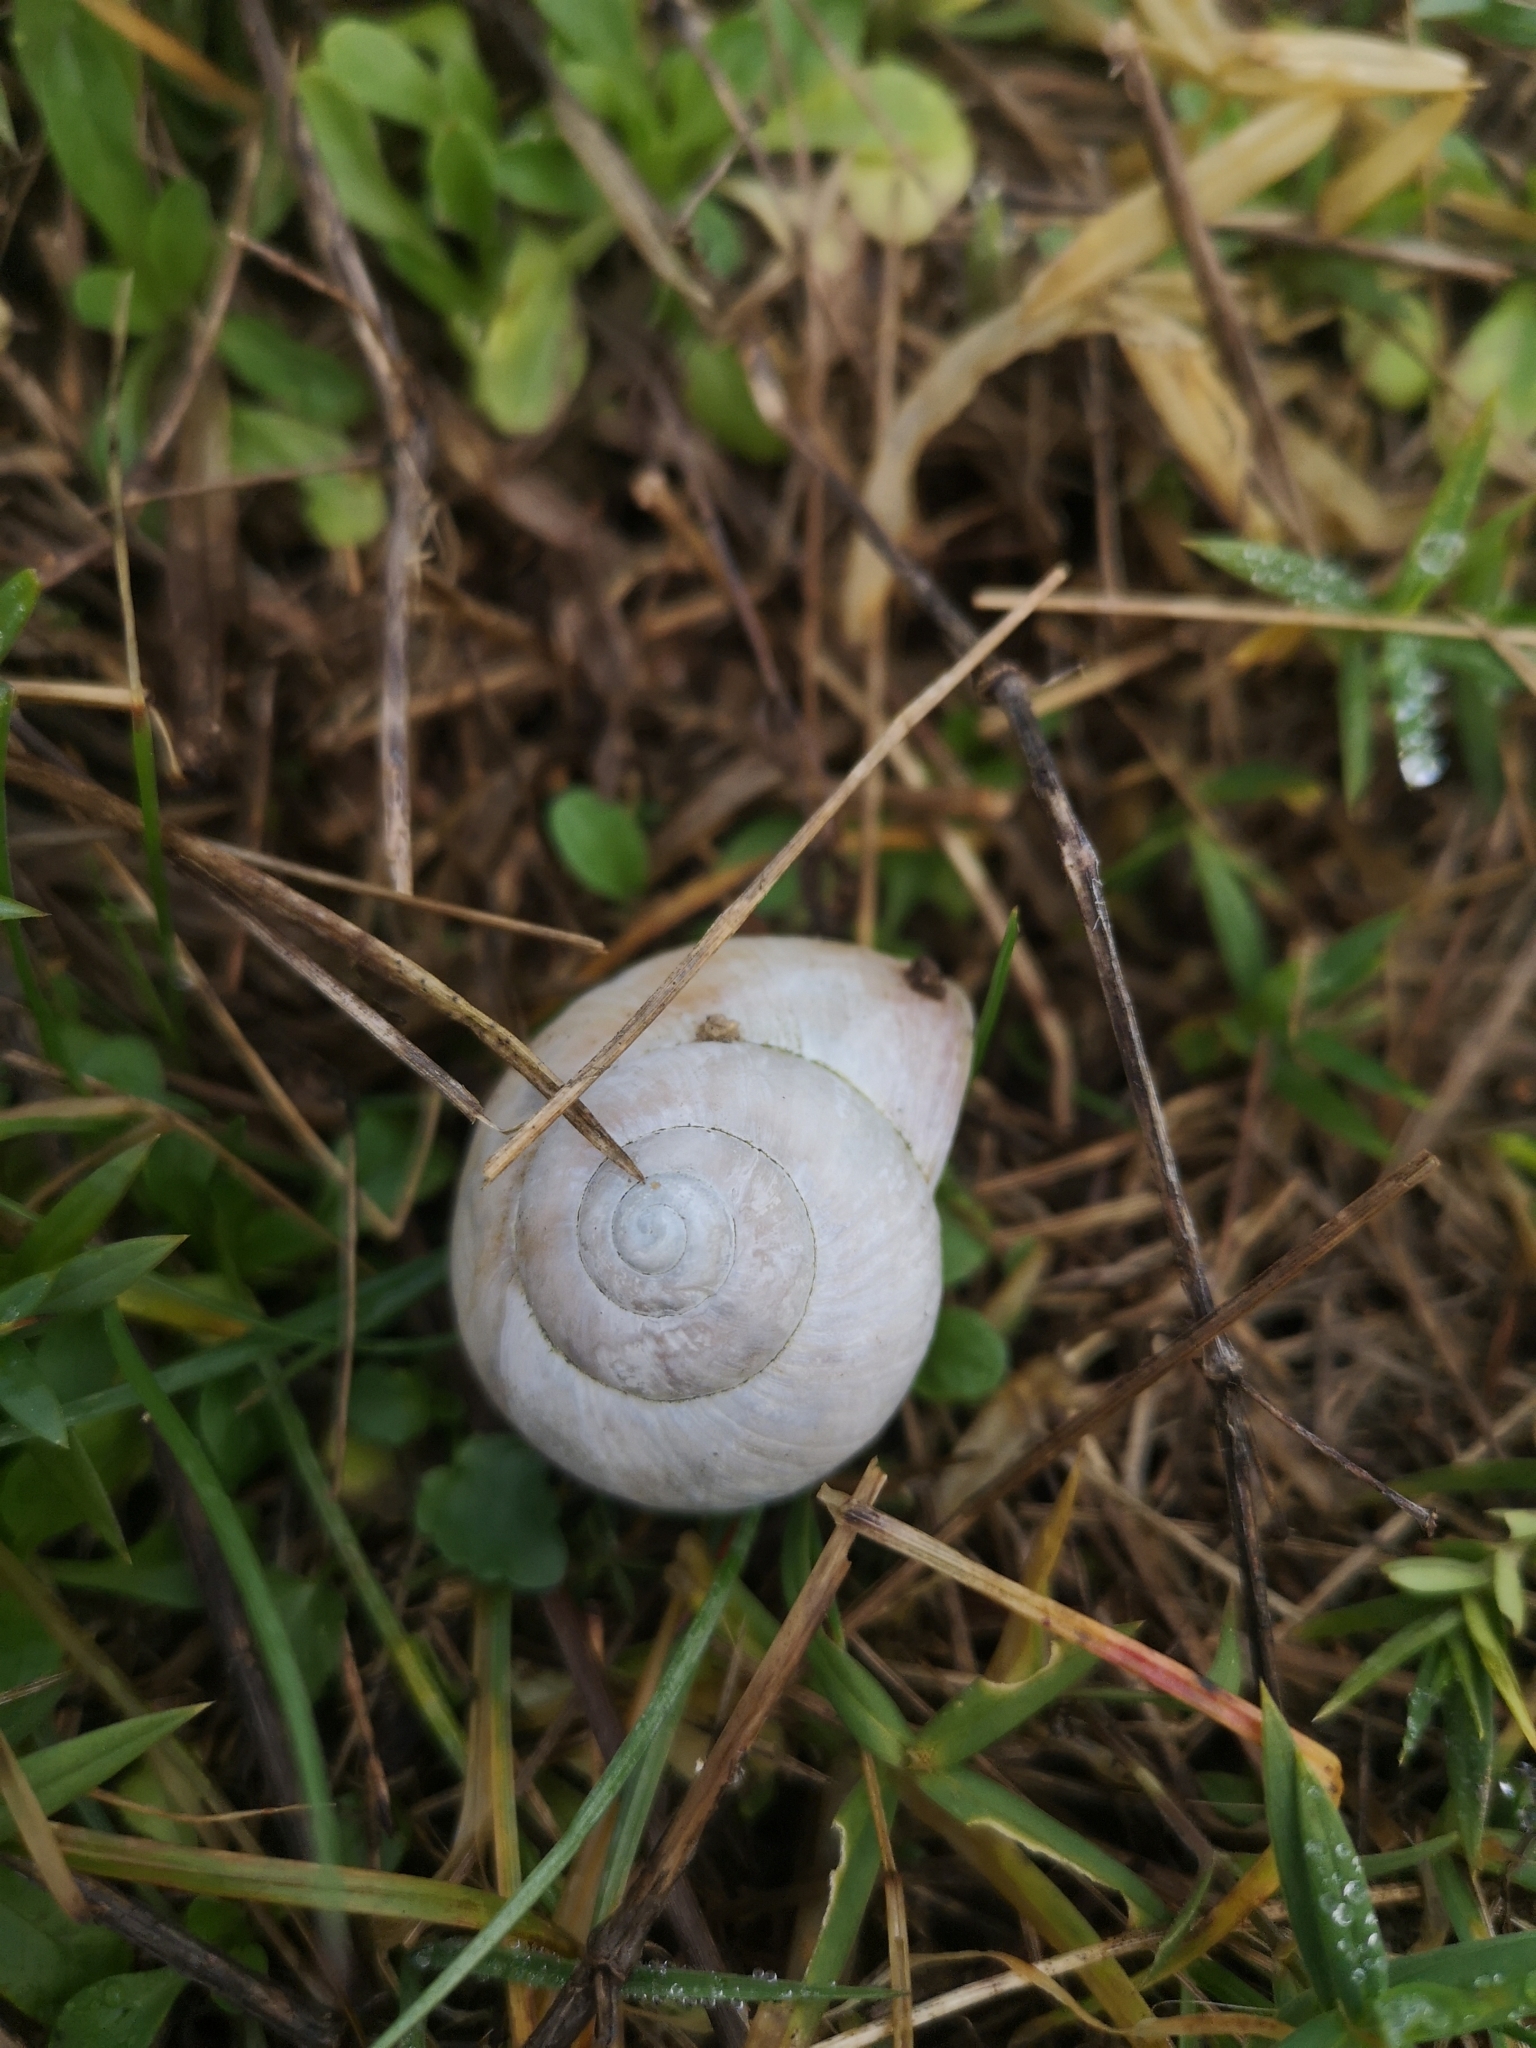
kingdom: Animalia
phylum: Mollusca
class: Gastropoda
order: Stylommatophora
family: Helicidae
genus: Helix
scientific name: Helix pomatia
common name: Roman snail
